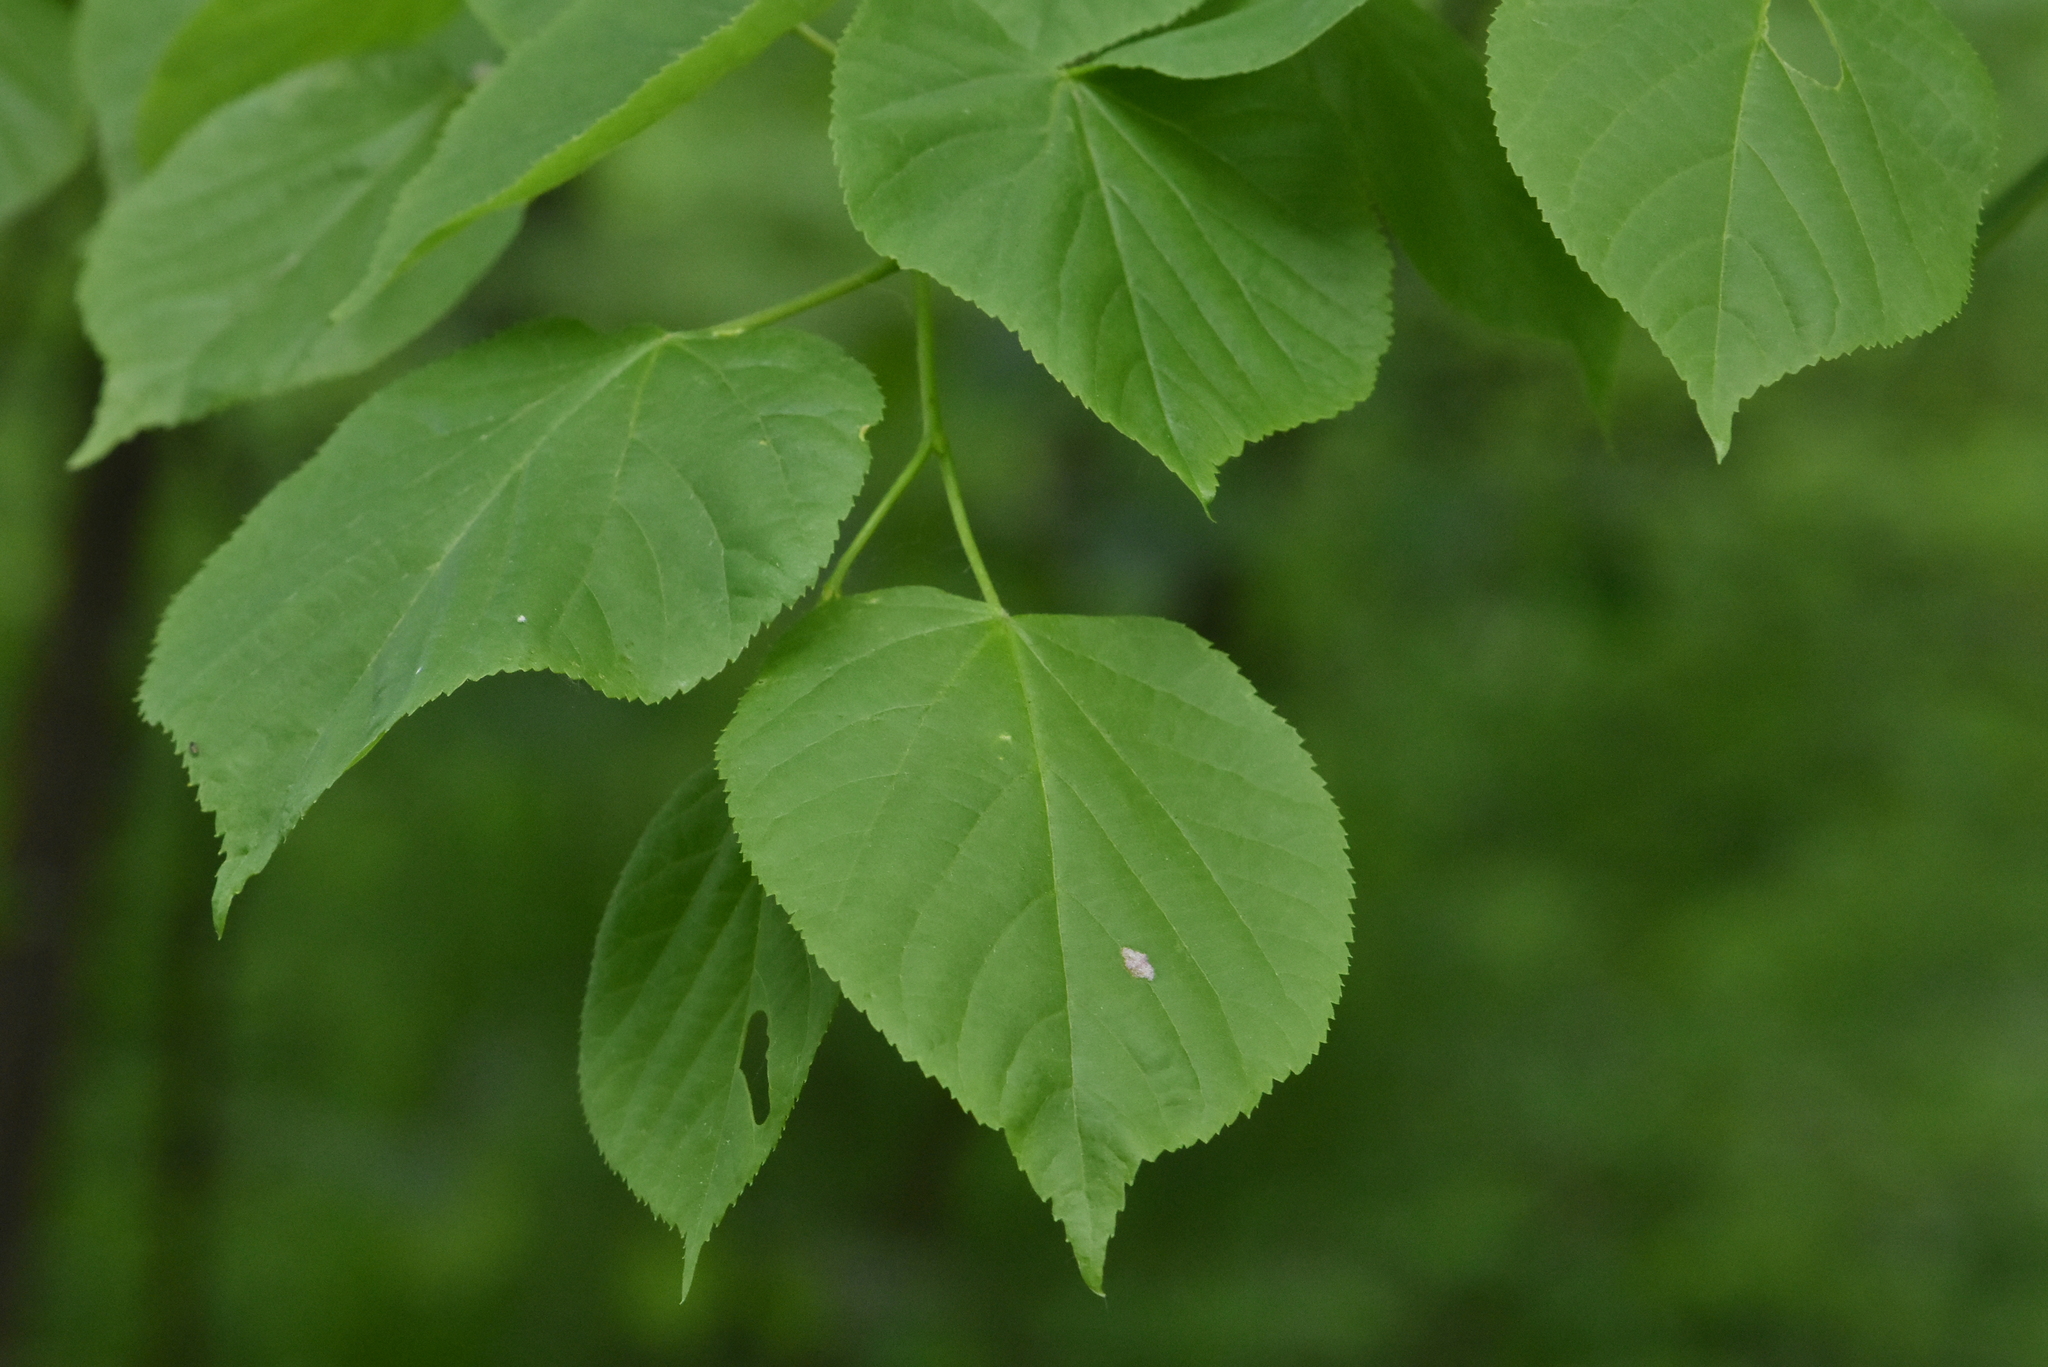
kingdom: Plantae
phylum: Tracheophyta
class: Magnoliopsida
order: Malvales
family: Malvaceae
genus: Tilia
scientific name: Tilia cordata
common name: Small-leaved lime
